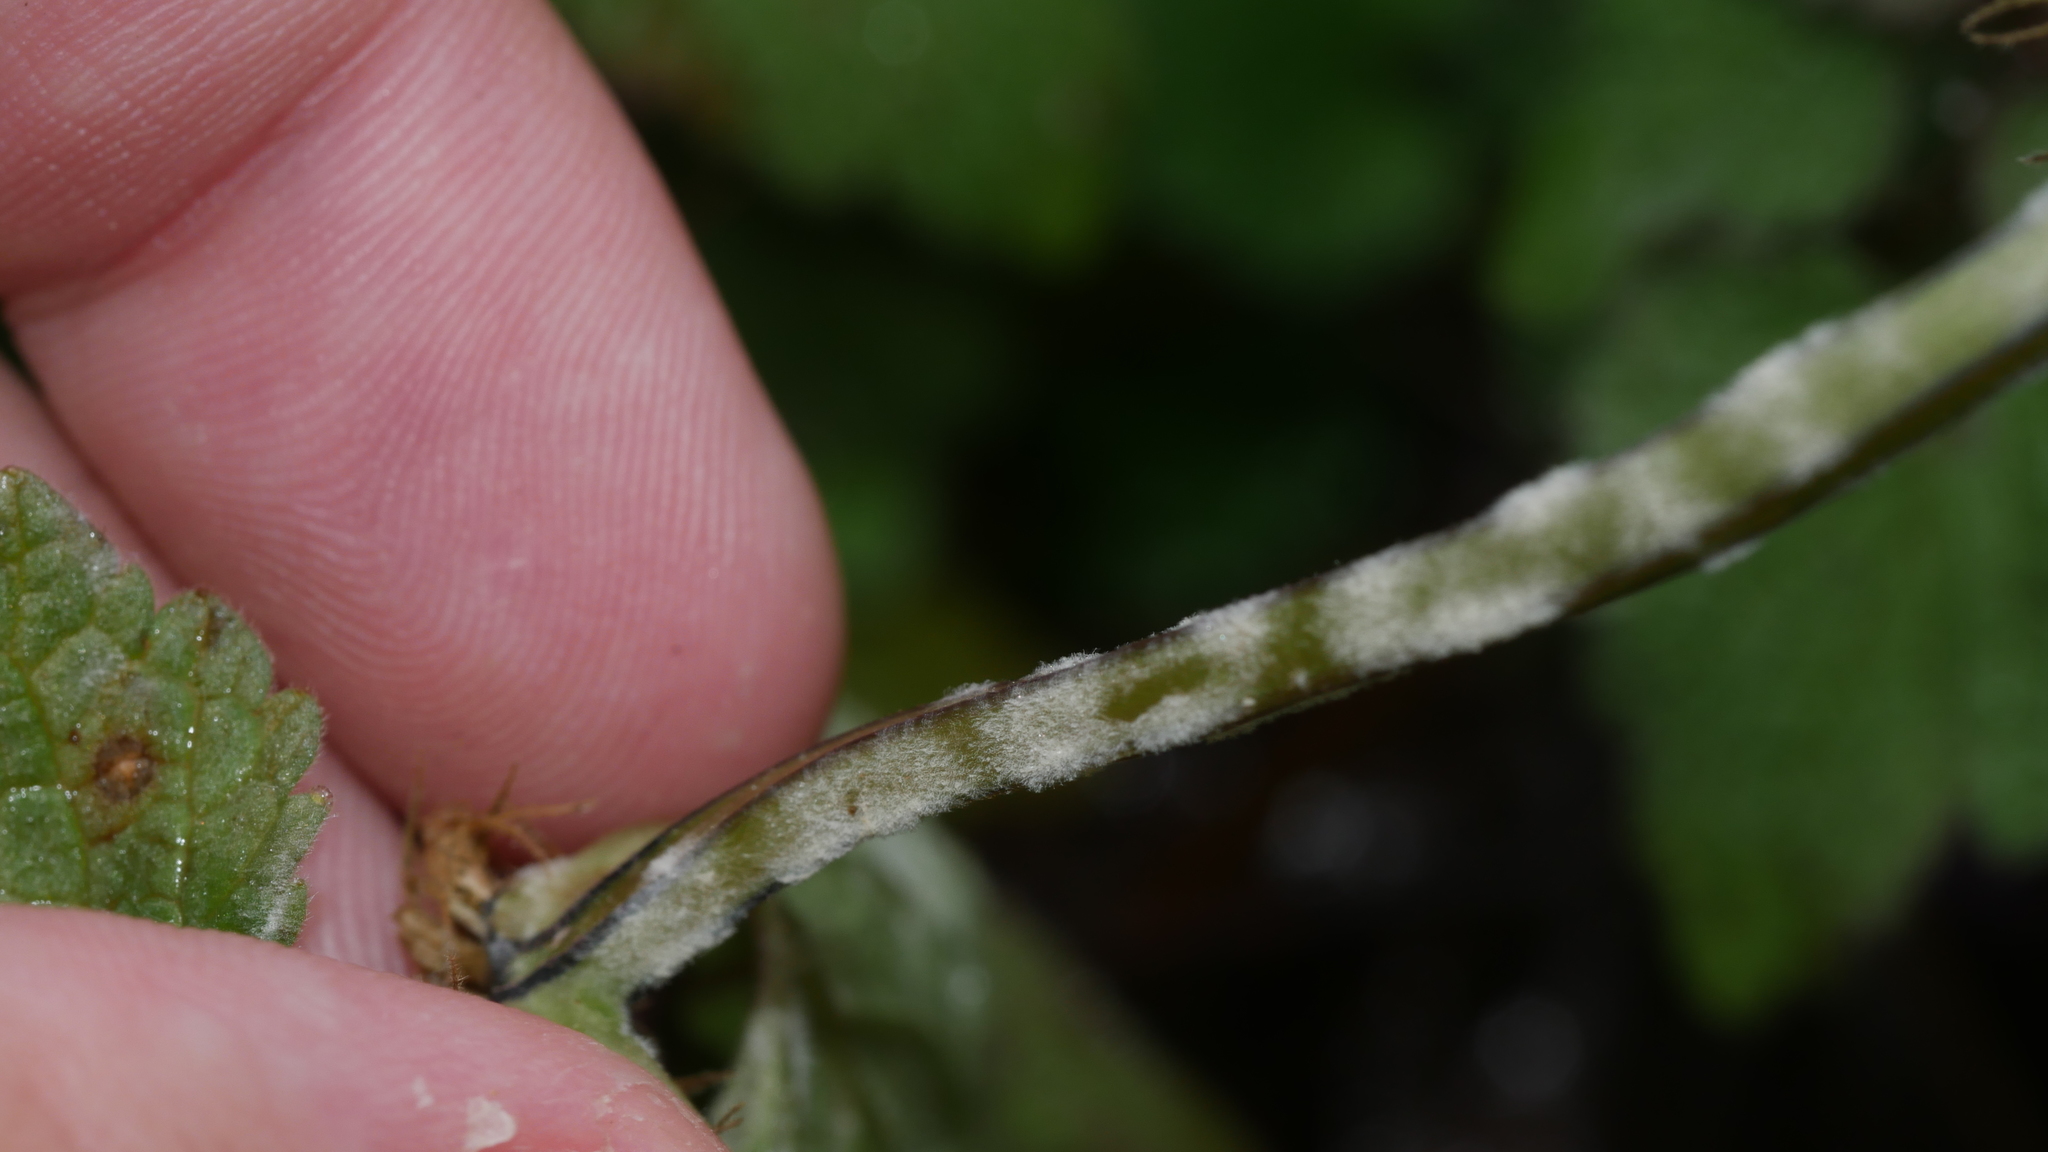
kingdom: Fungi
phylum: Ascomycota
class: Leotiomycetes
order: Helotiales
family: Erysiphaceae
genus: Neoerysiphe
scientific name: Neoerysiphe galeopsidis
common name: Mint mildew
